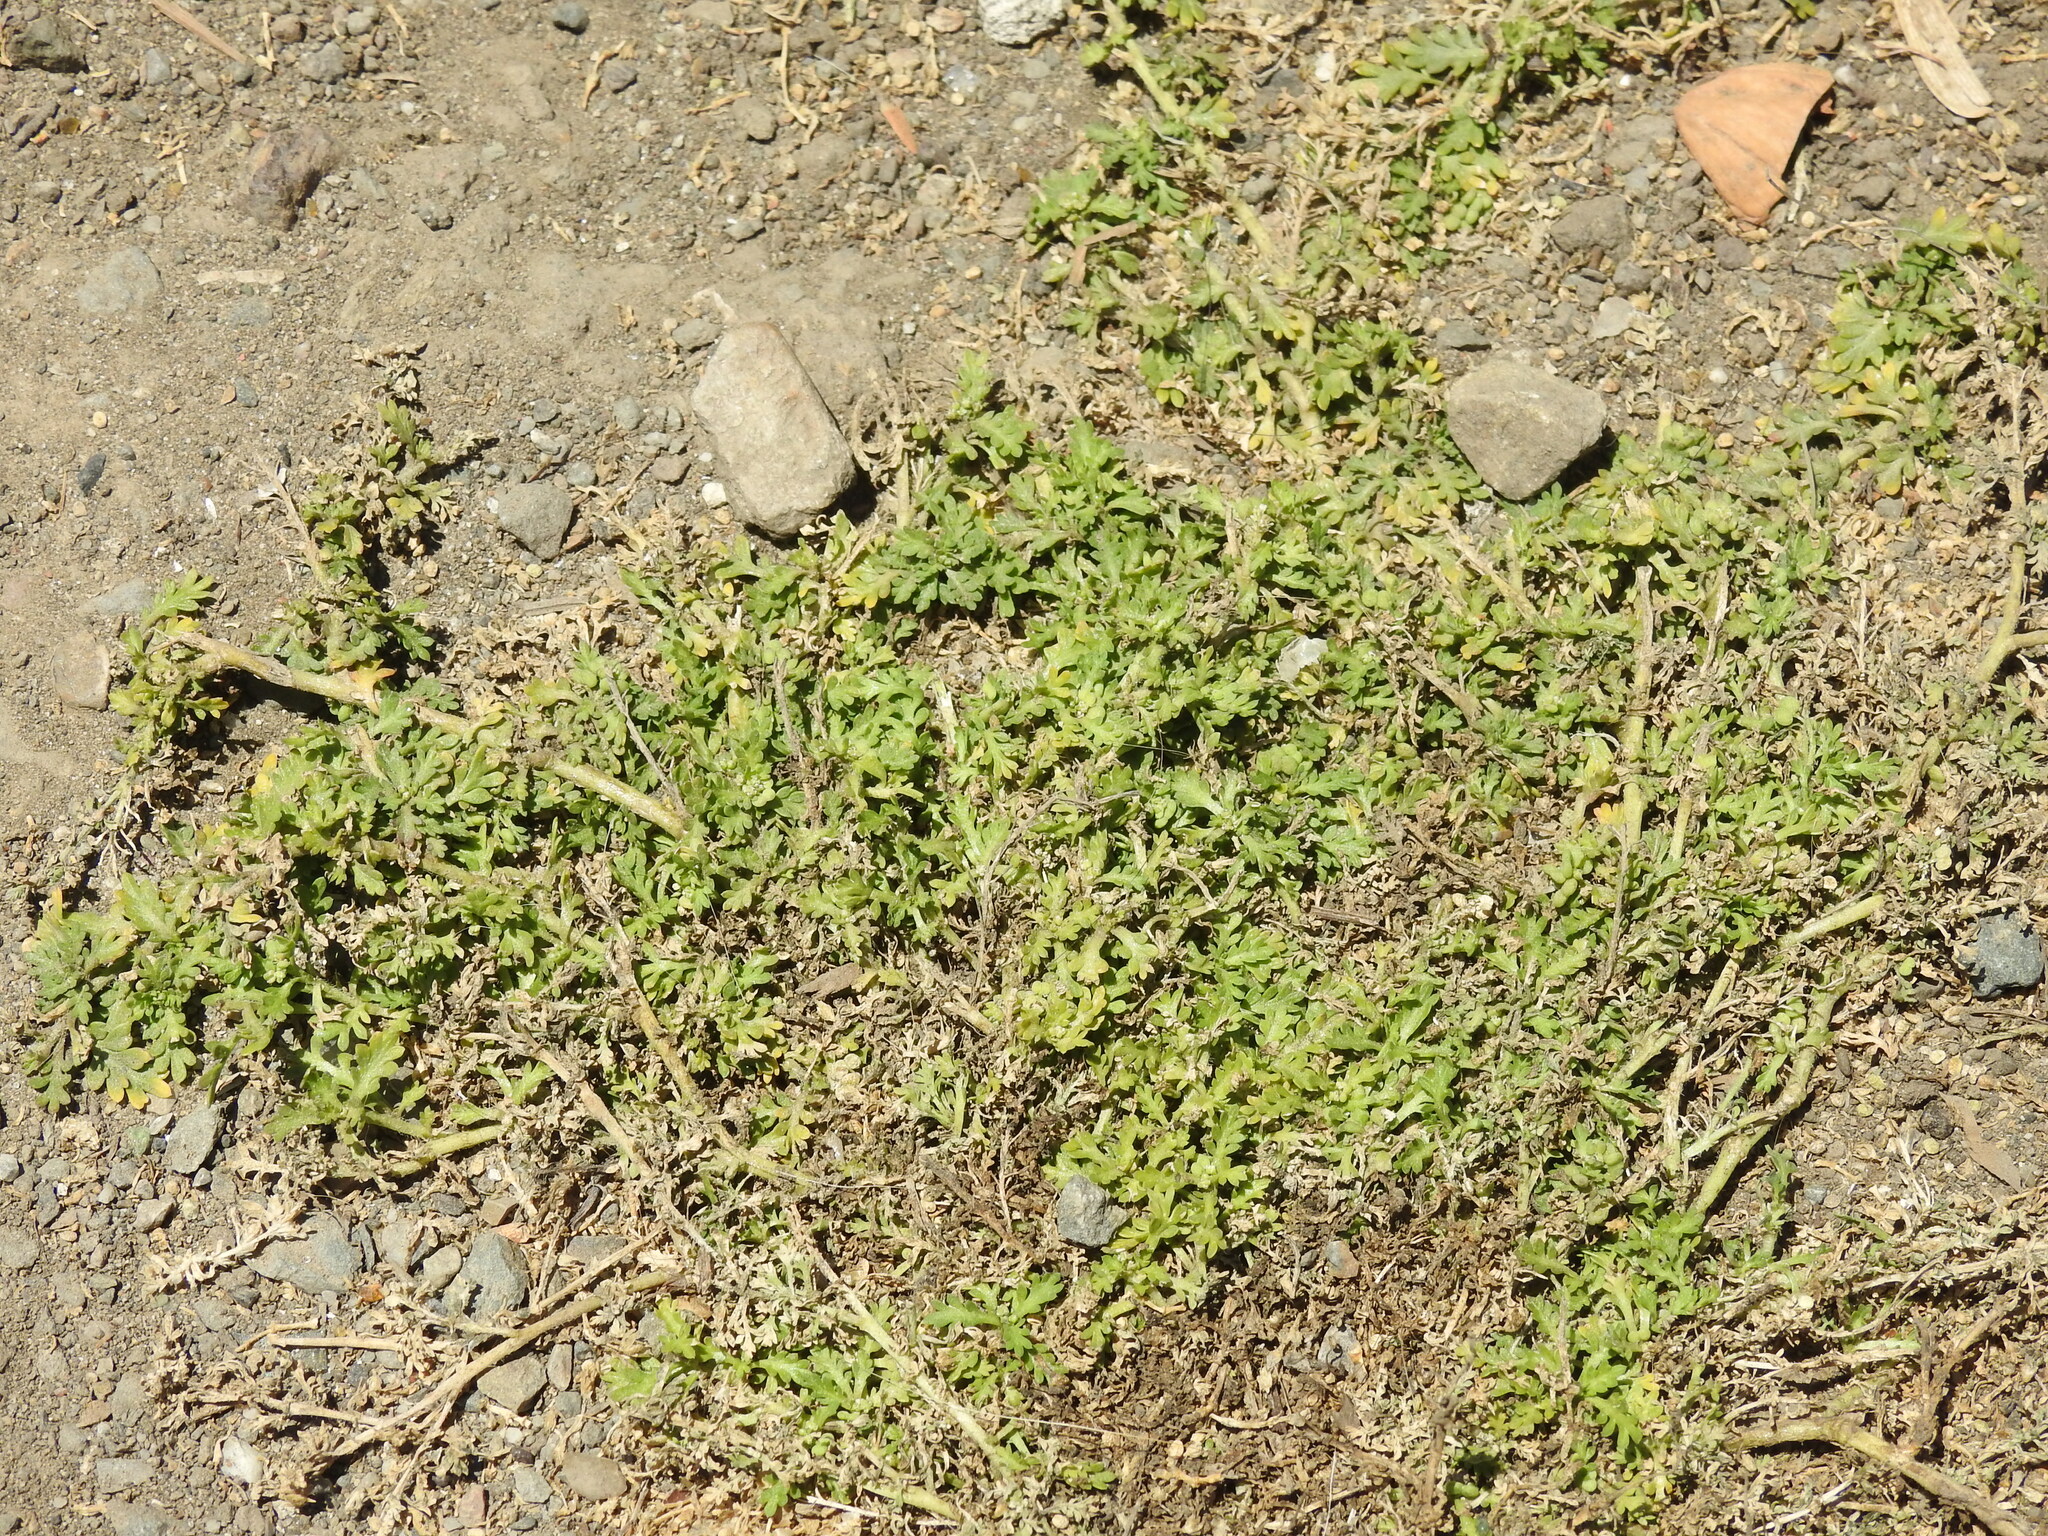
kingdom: Plantae
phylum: Tracheophyta
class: Magnoliopsida
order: Brassicales
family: Brassicaceae
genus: Lepidium
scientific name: Lepidium didymum
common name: Lesser swinecress
